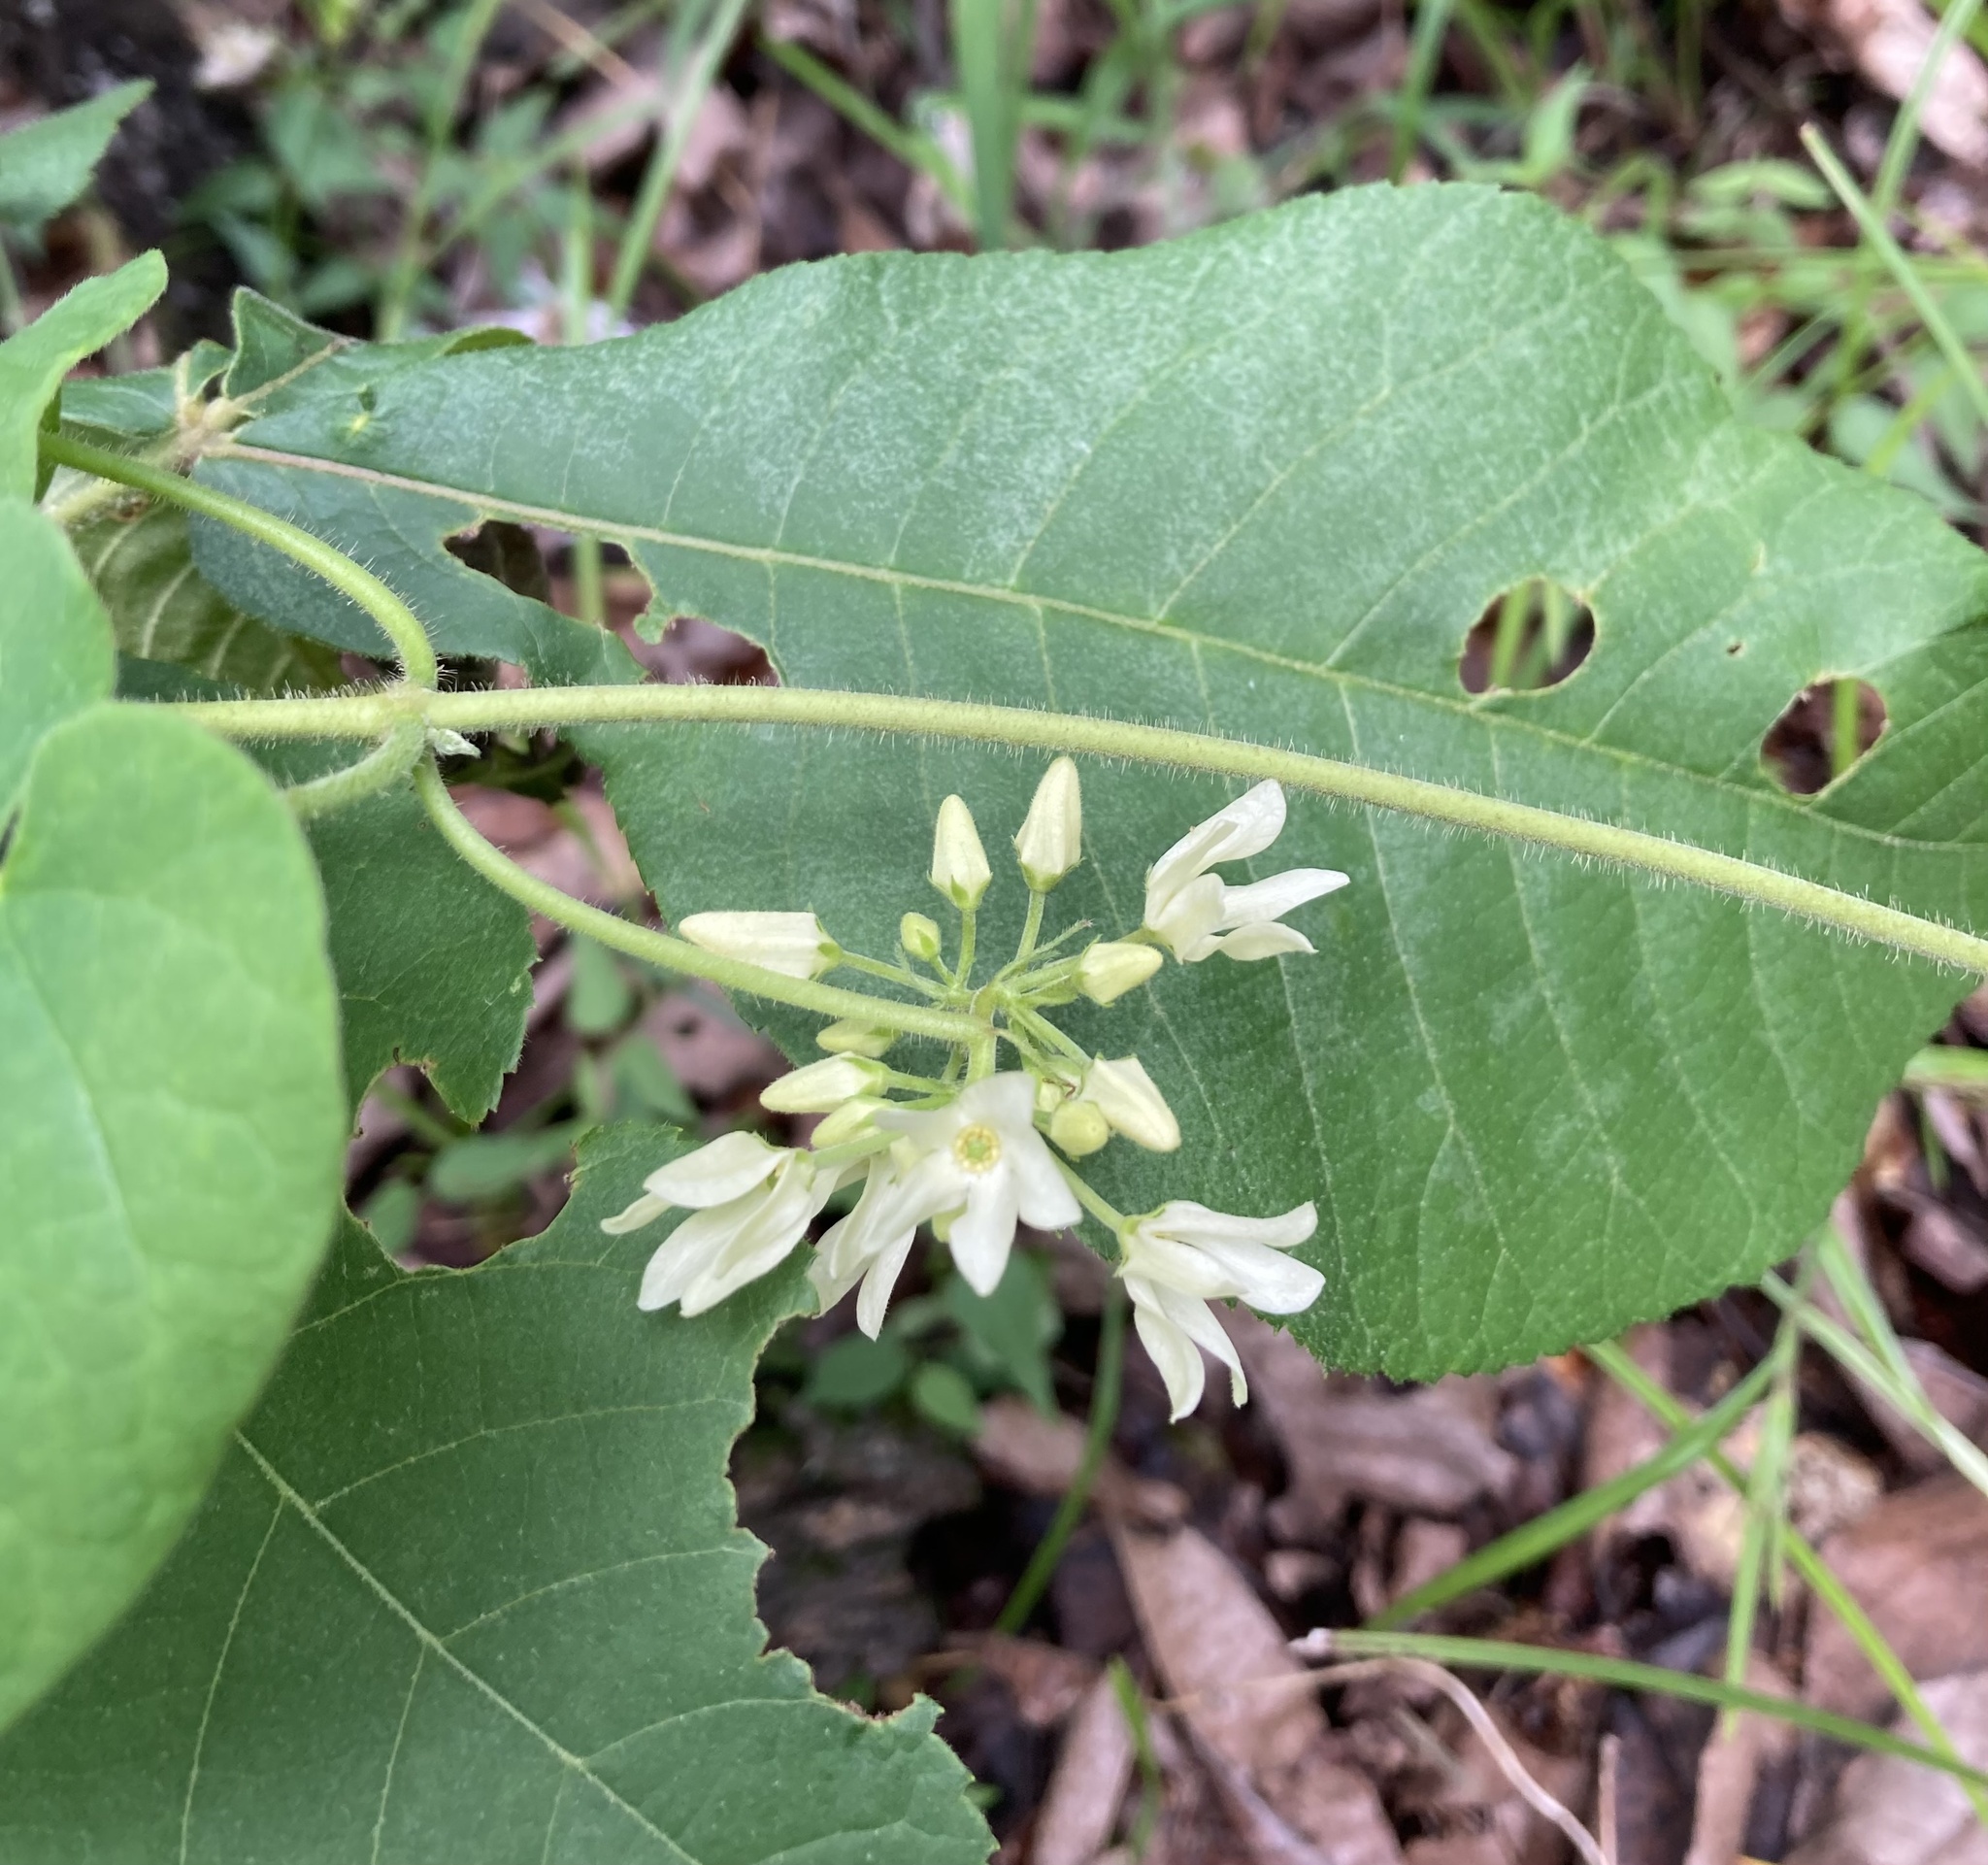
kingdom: Plantae
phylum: Tracheophyta
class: Magnoliopsida
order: Gentianales
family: Apocynaceae
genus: Matelea
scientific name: Matelea baldwyniana
